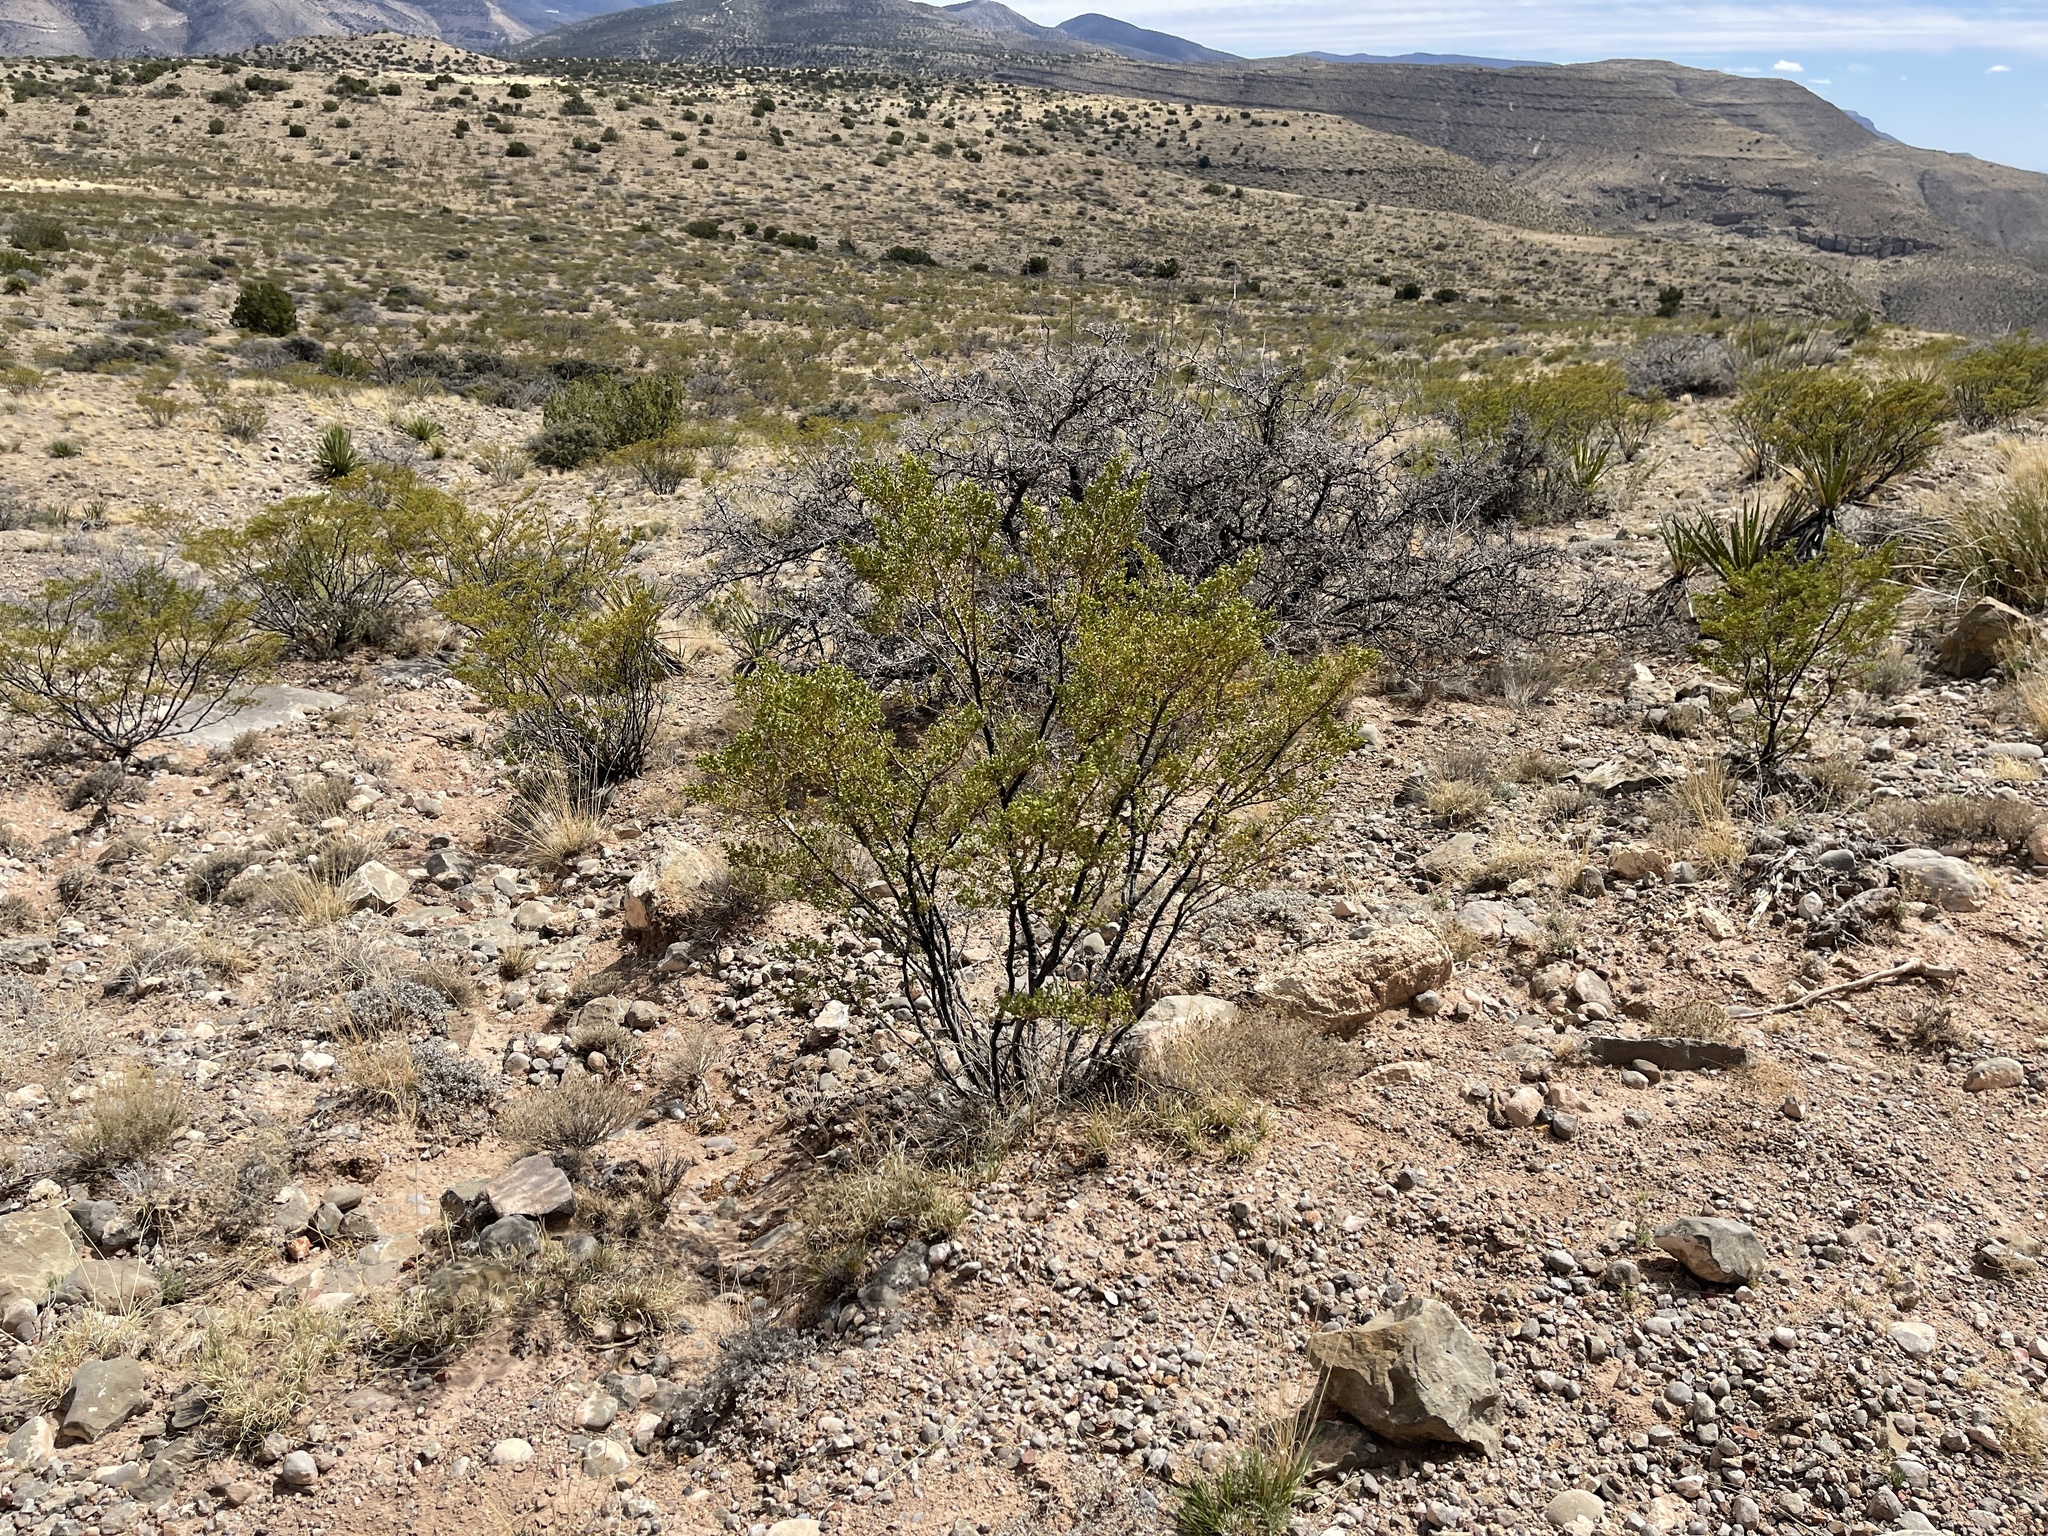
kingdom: Plantae
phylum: Tracheophyta
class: Magnoliopsida
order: Zygophyllales
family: Zygophyllaceae
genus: Larrea
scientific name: Larrea tridentata
